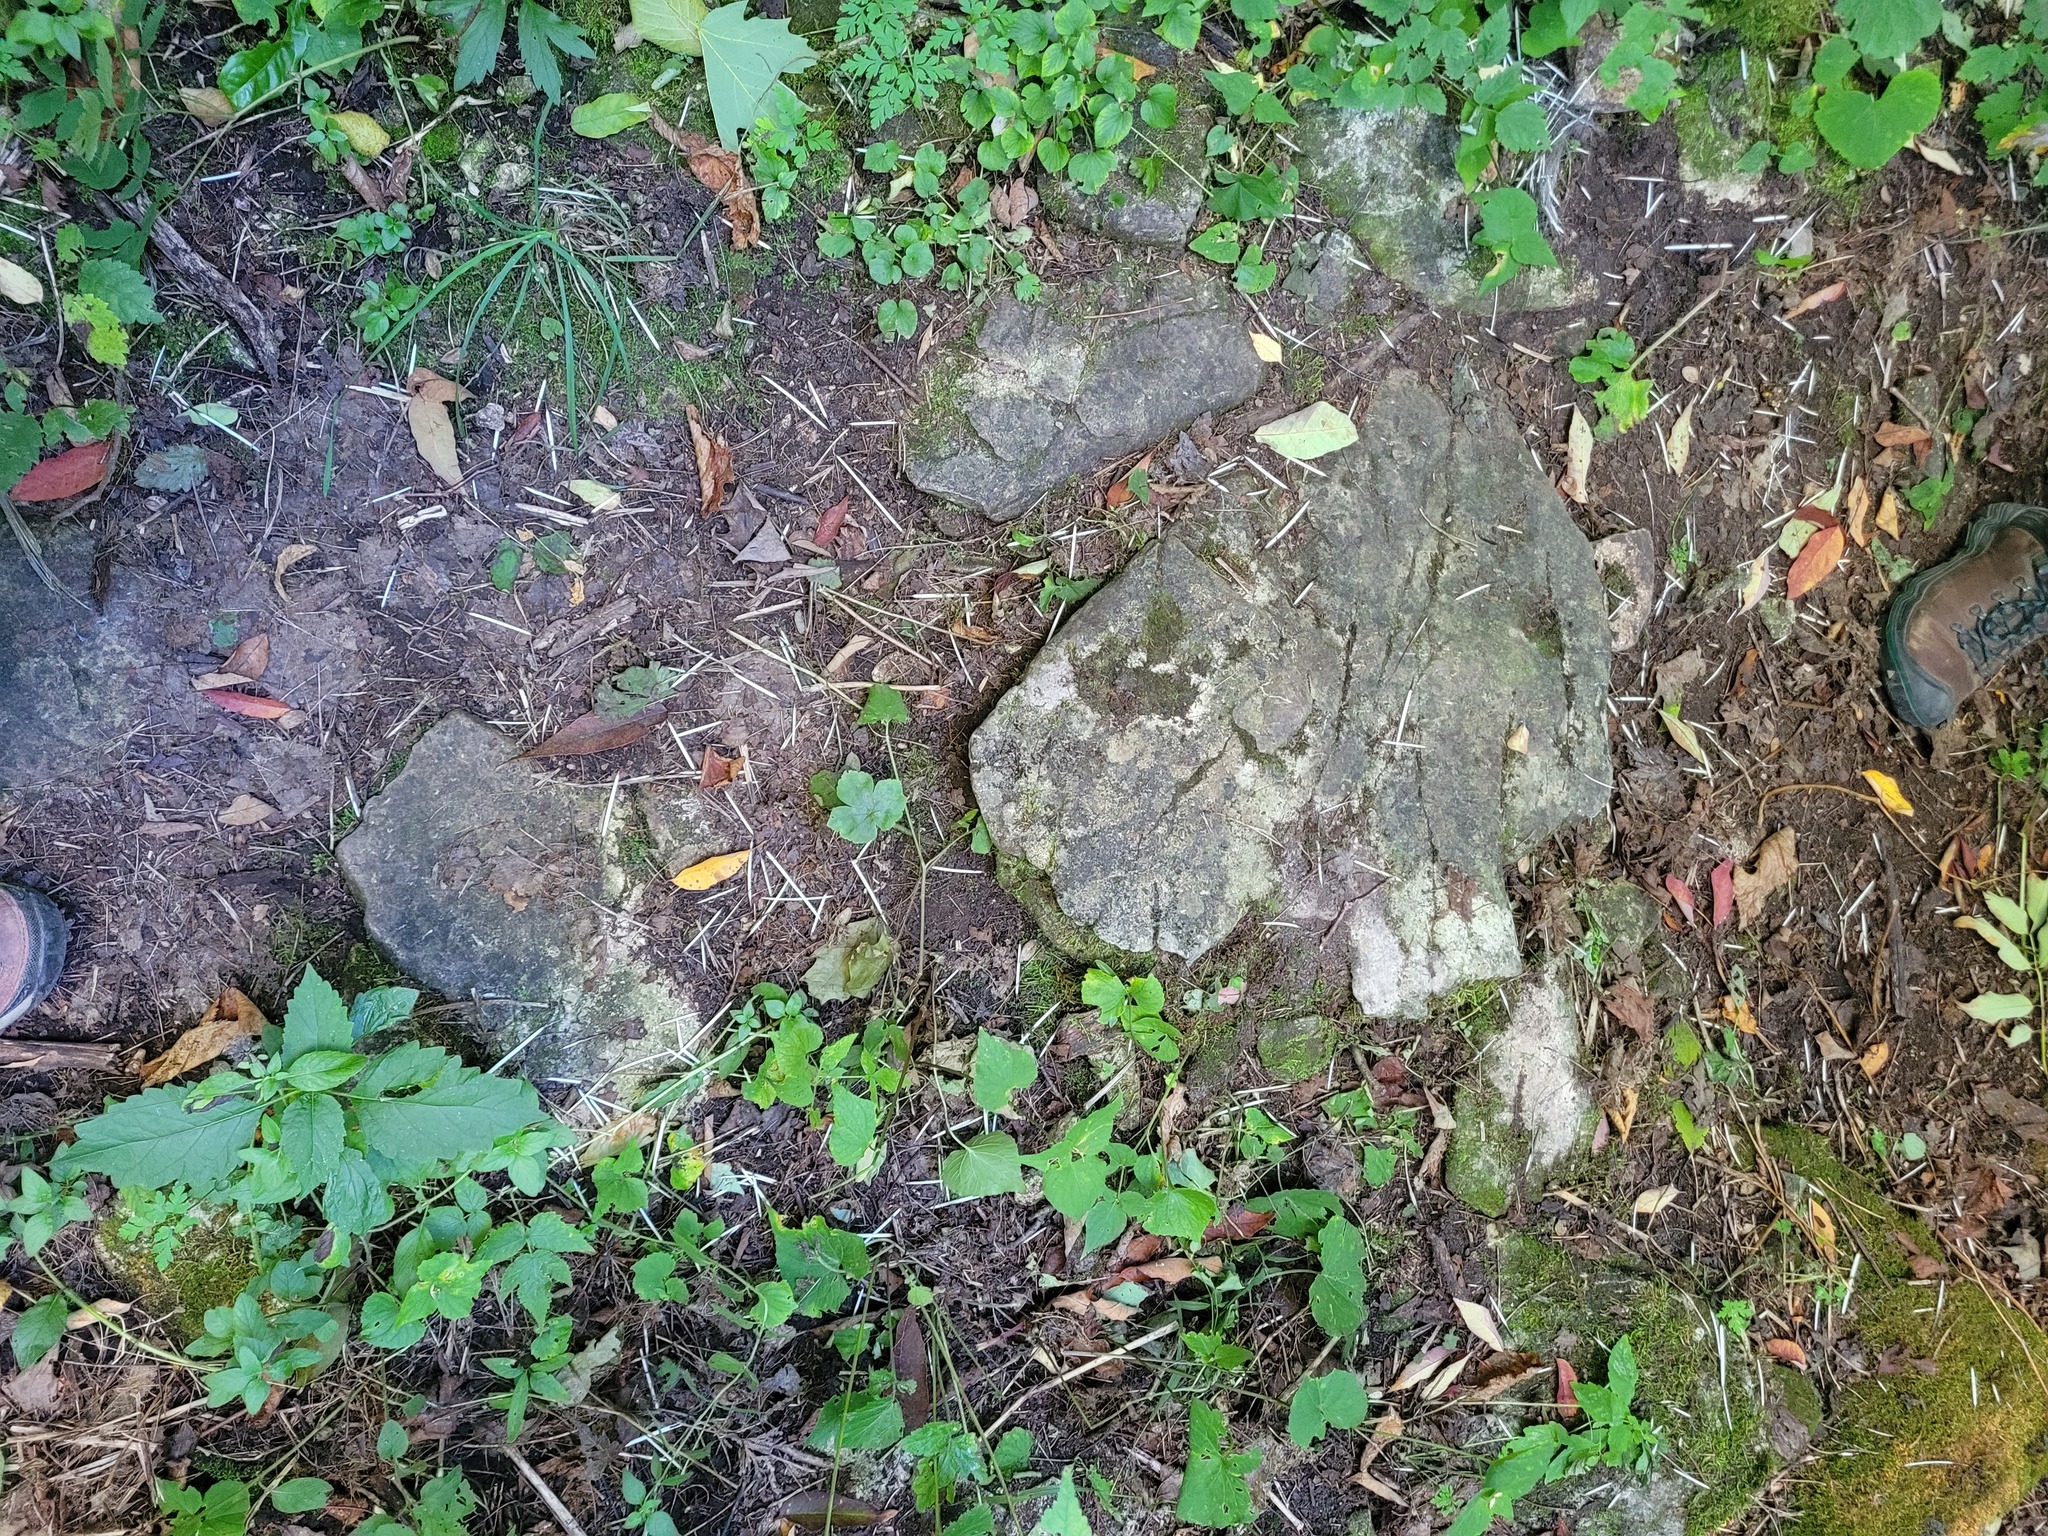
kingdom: Animalia
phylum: Chordata
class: Mammalia
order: Rodentia
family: Erethizontidae
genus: Erethizon
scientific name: Erethizon dorsatus
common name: North american porcupine
